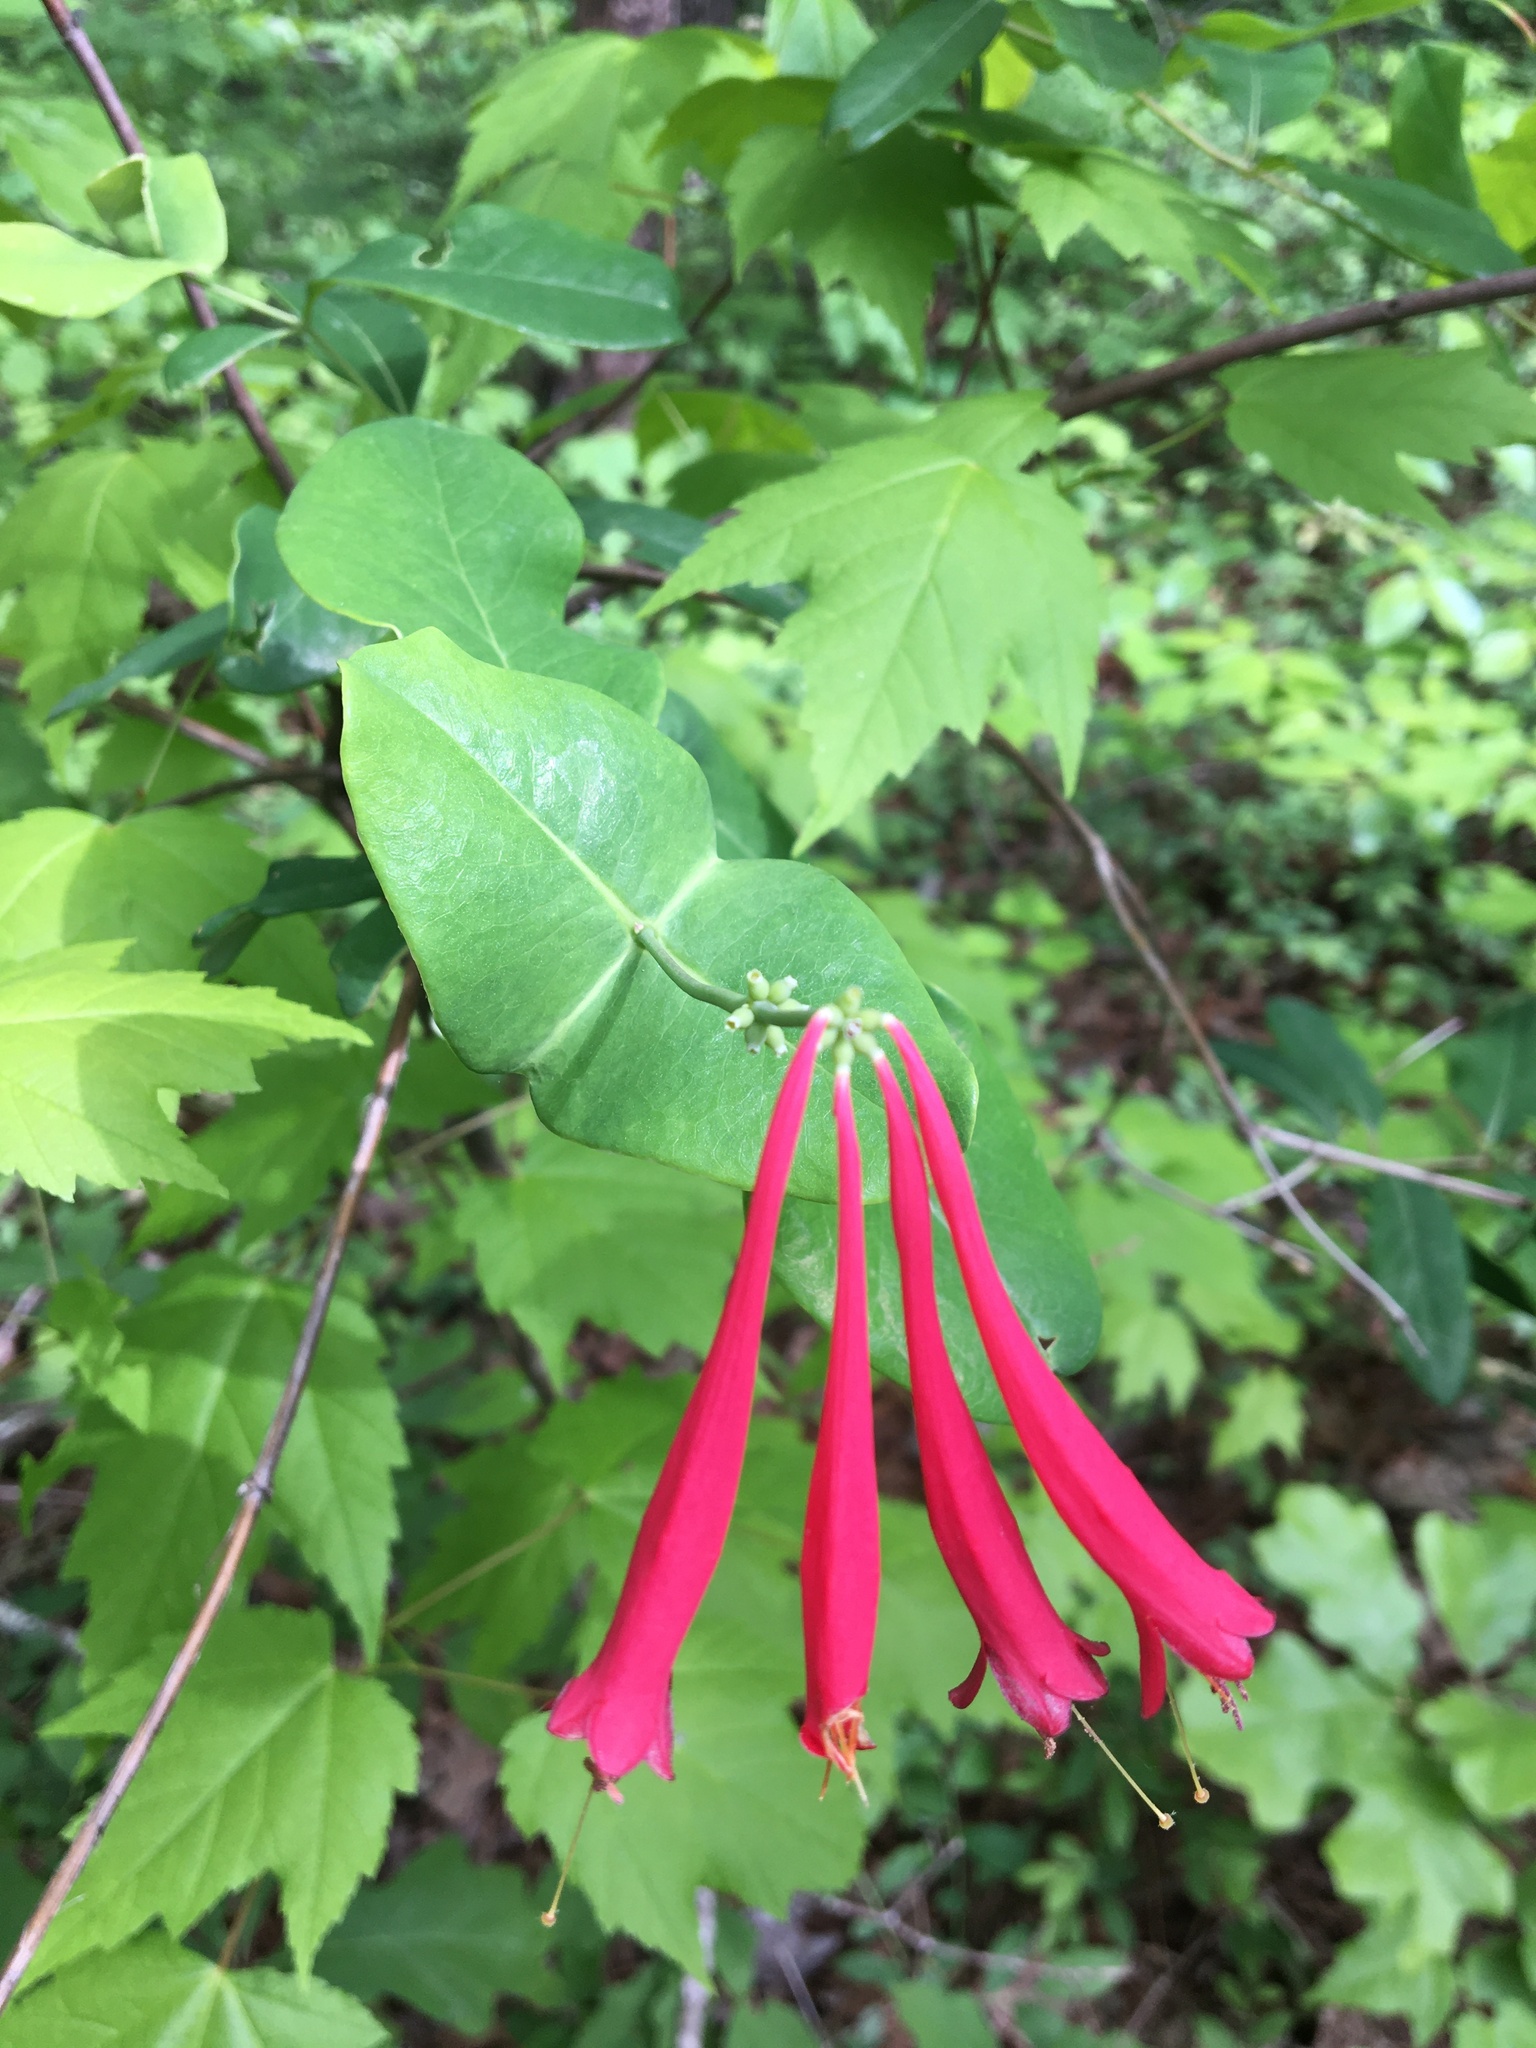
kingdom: Plantae
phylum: Tracheophyta
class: Magnoliopsida
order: Dipsacales
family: Caprifoliaceae
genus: Lonicera
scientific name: Lonicera sempervirens
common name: Coral honeysuckle
